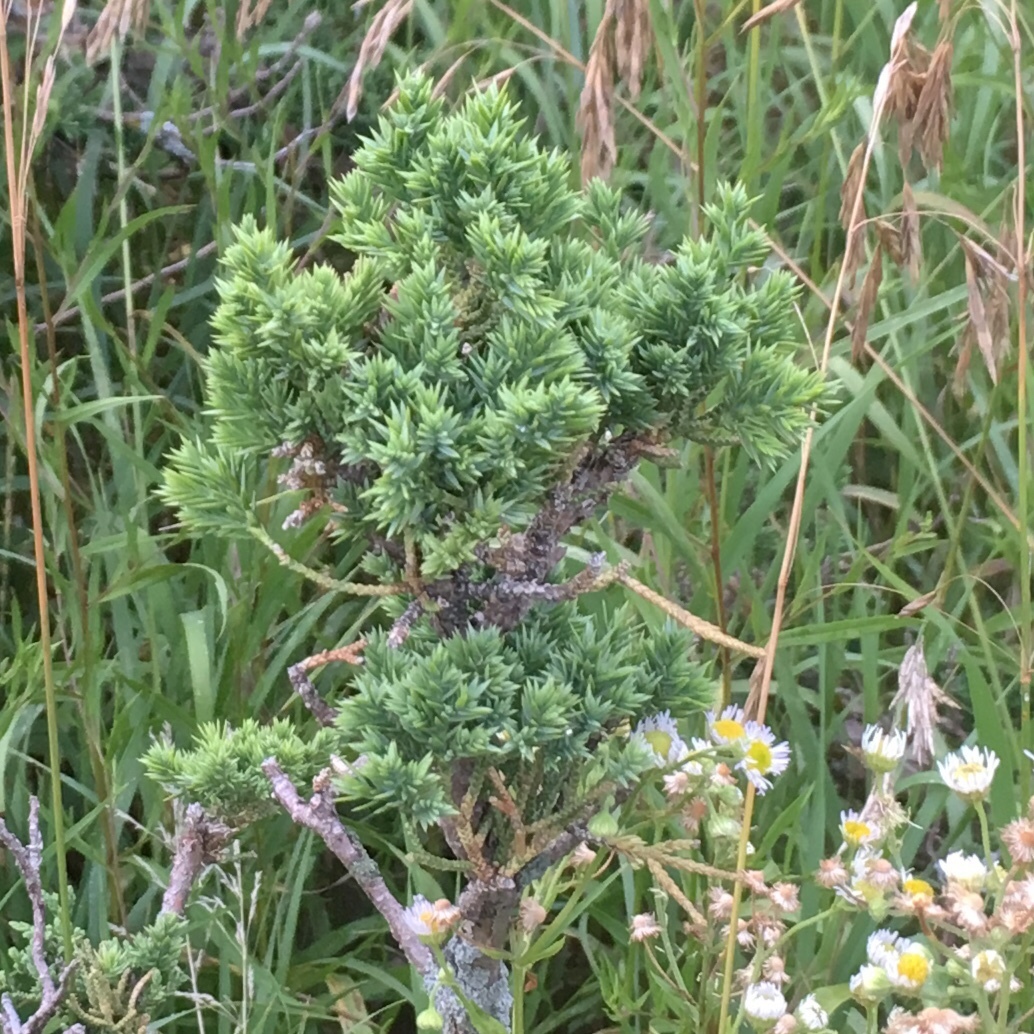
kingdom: Plantae
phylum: Tracheophyta
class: Pinopsida
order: Pinales
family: Cupressaceae
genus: Juniperus
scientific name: Juniperus virginiana
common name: Red juniper
